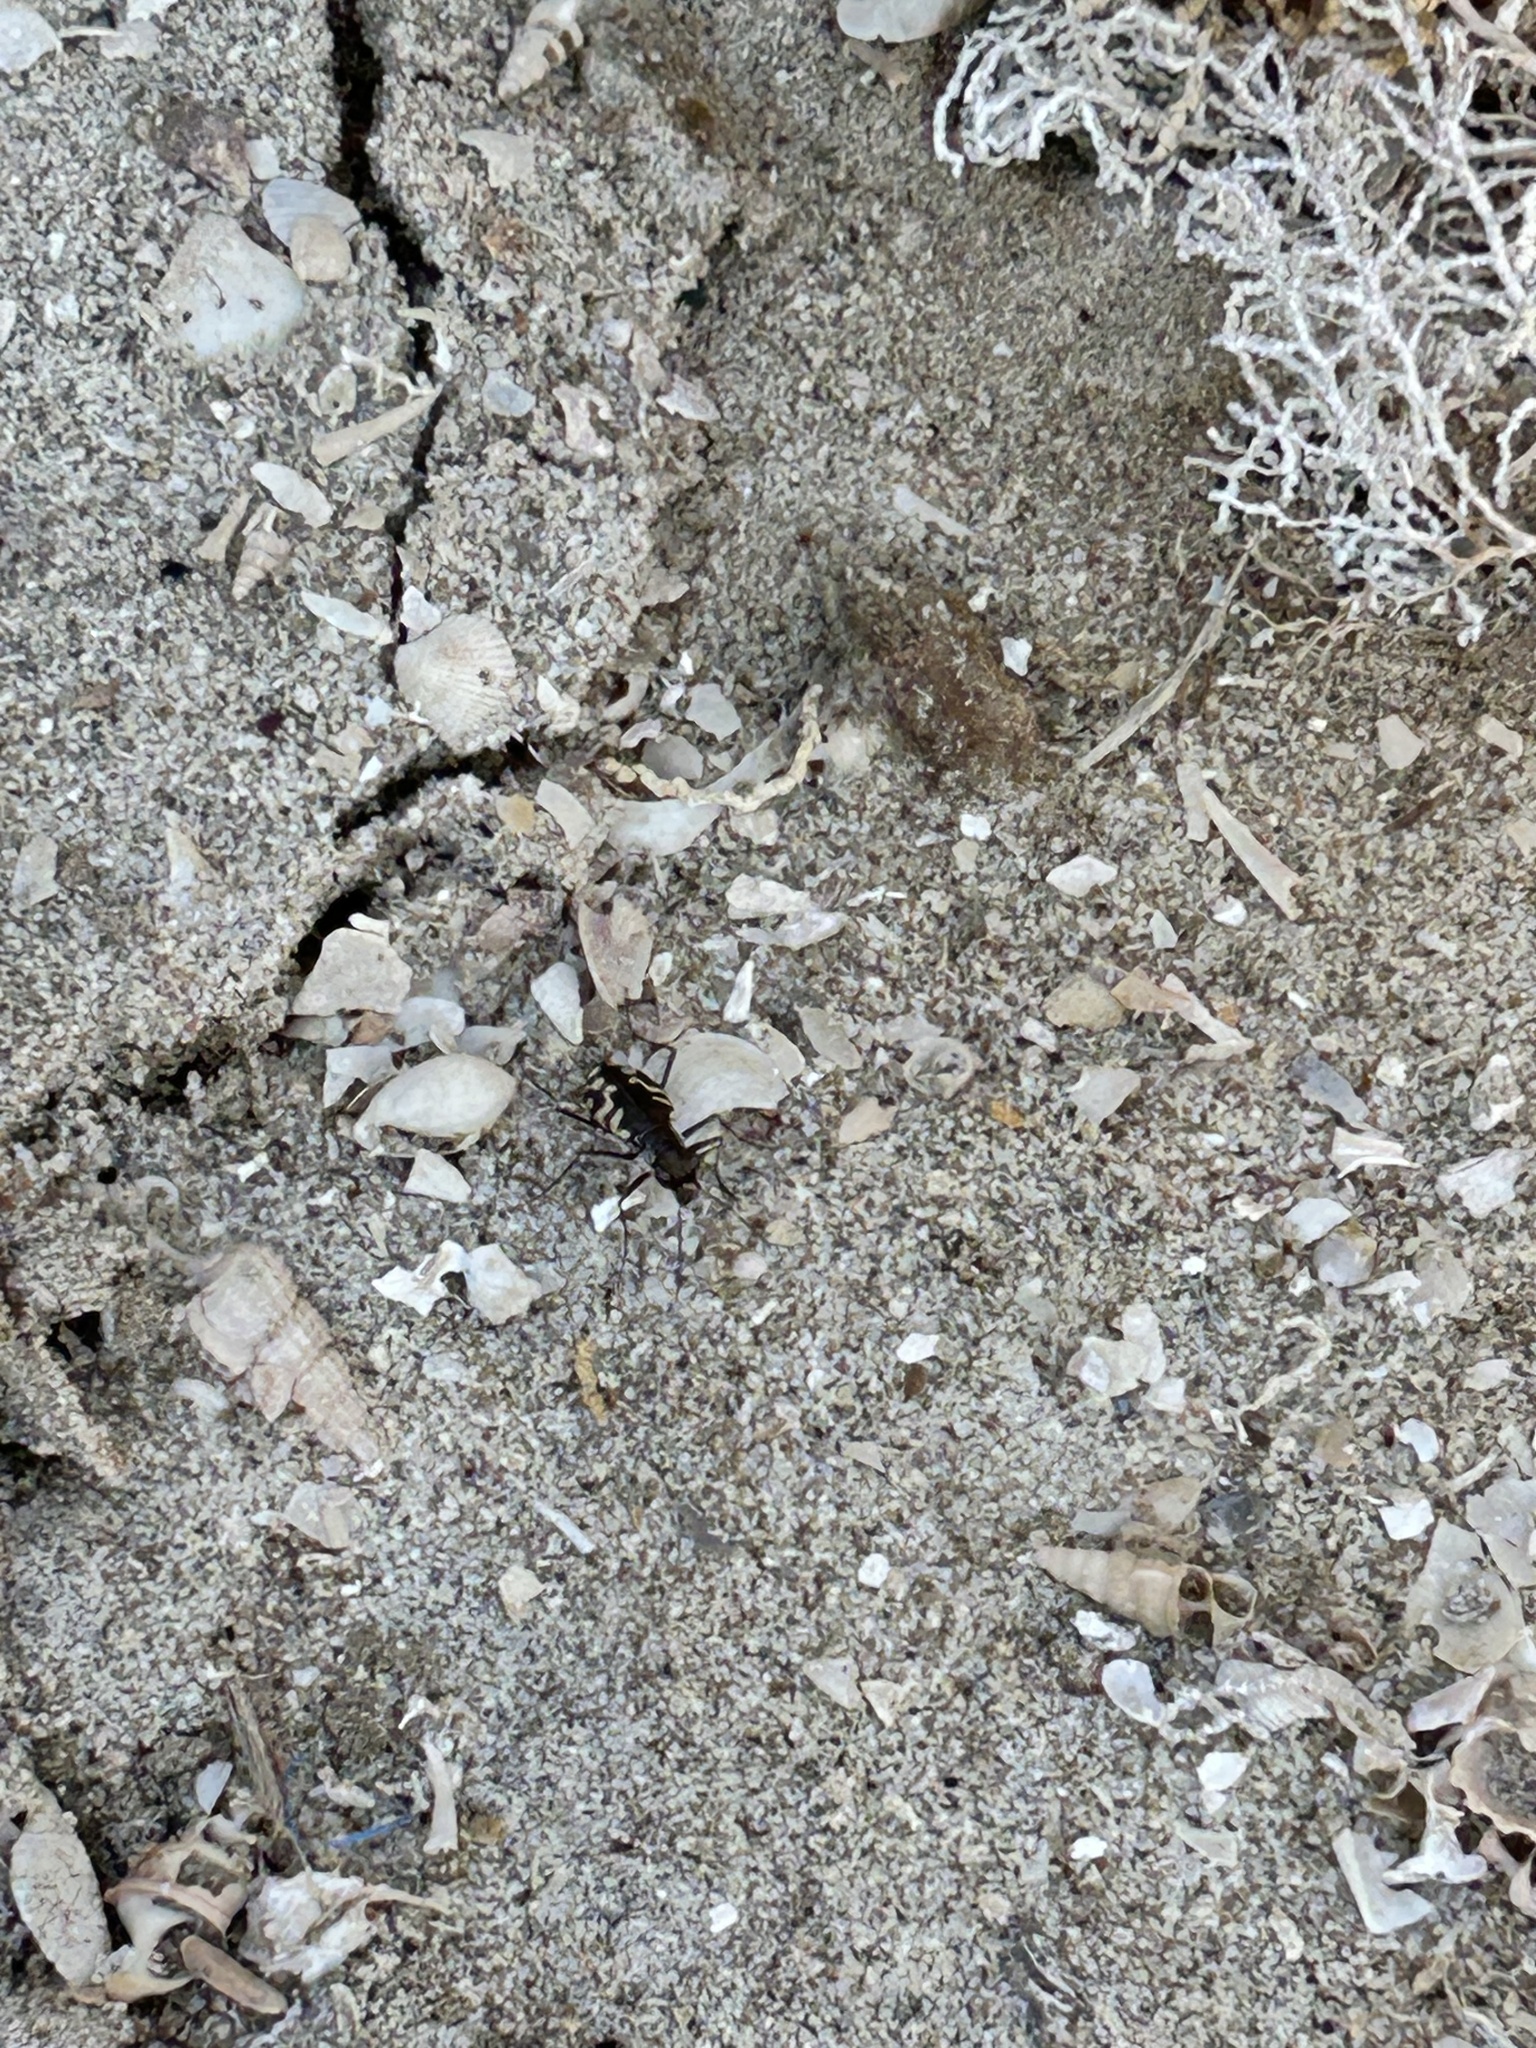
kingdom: Animalia
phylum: Arthropoda
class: Insecta
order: Coleoptera
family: Carabidae
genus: Cicindela
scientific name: Cicindela carthagena
